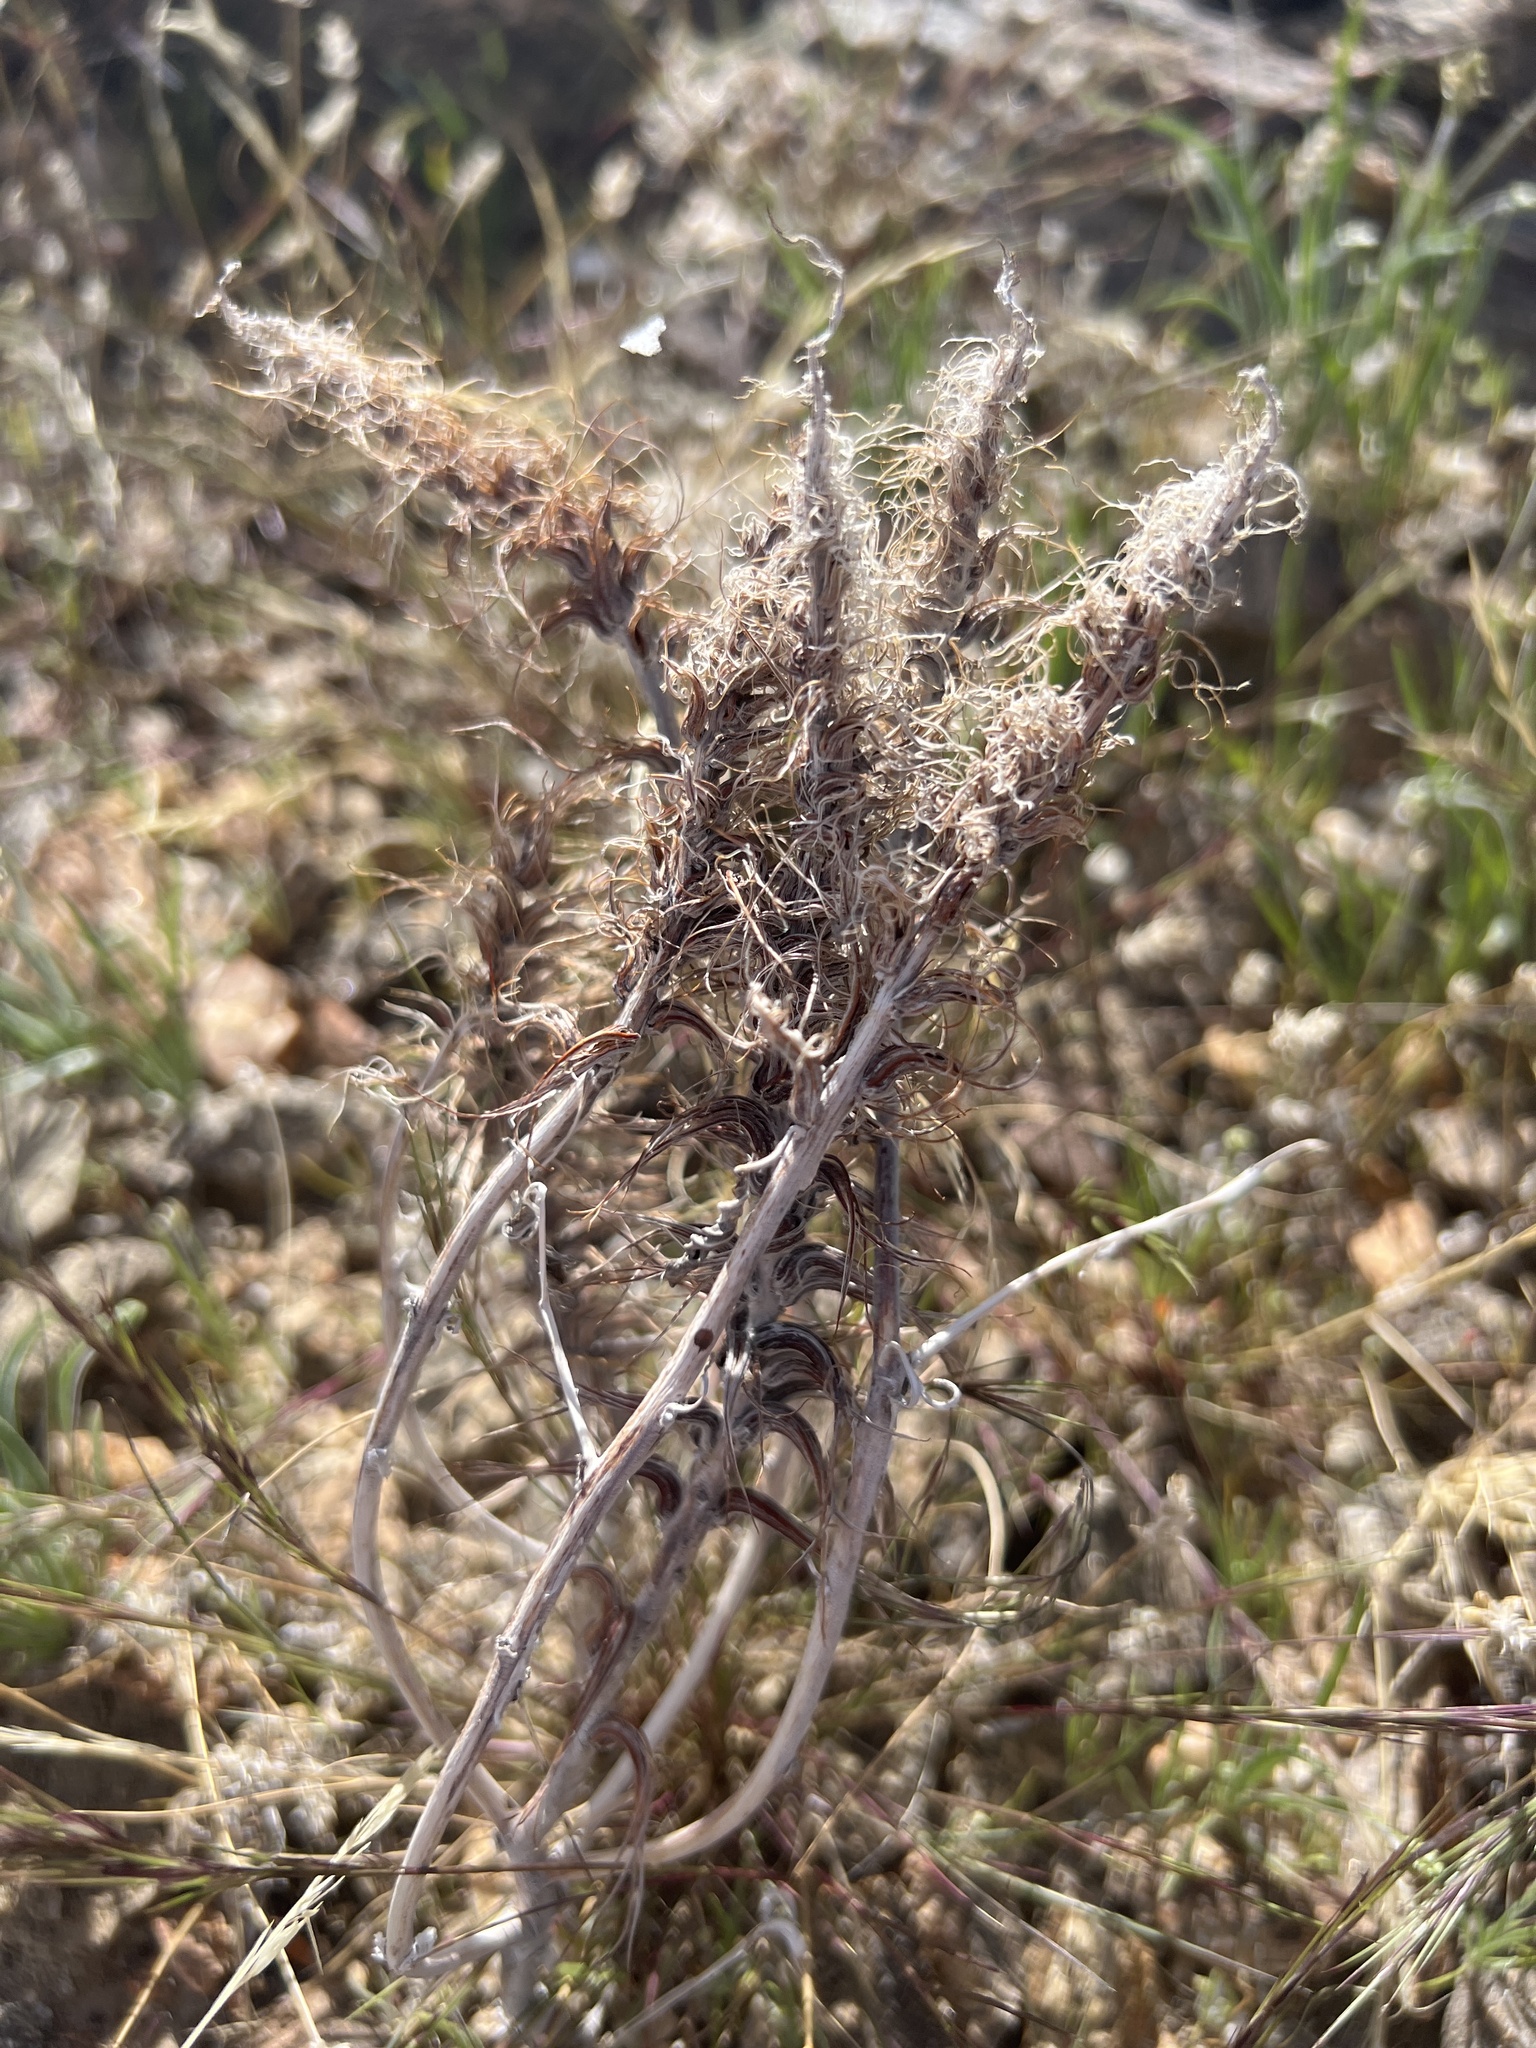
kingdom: Plantae
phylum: Tracheophyta
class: Magnoliopsida
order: Myrtales
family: Onagraceae
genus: Eremothera
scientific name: Eremothera boothii
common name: Booth's evening primrose
